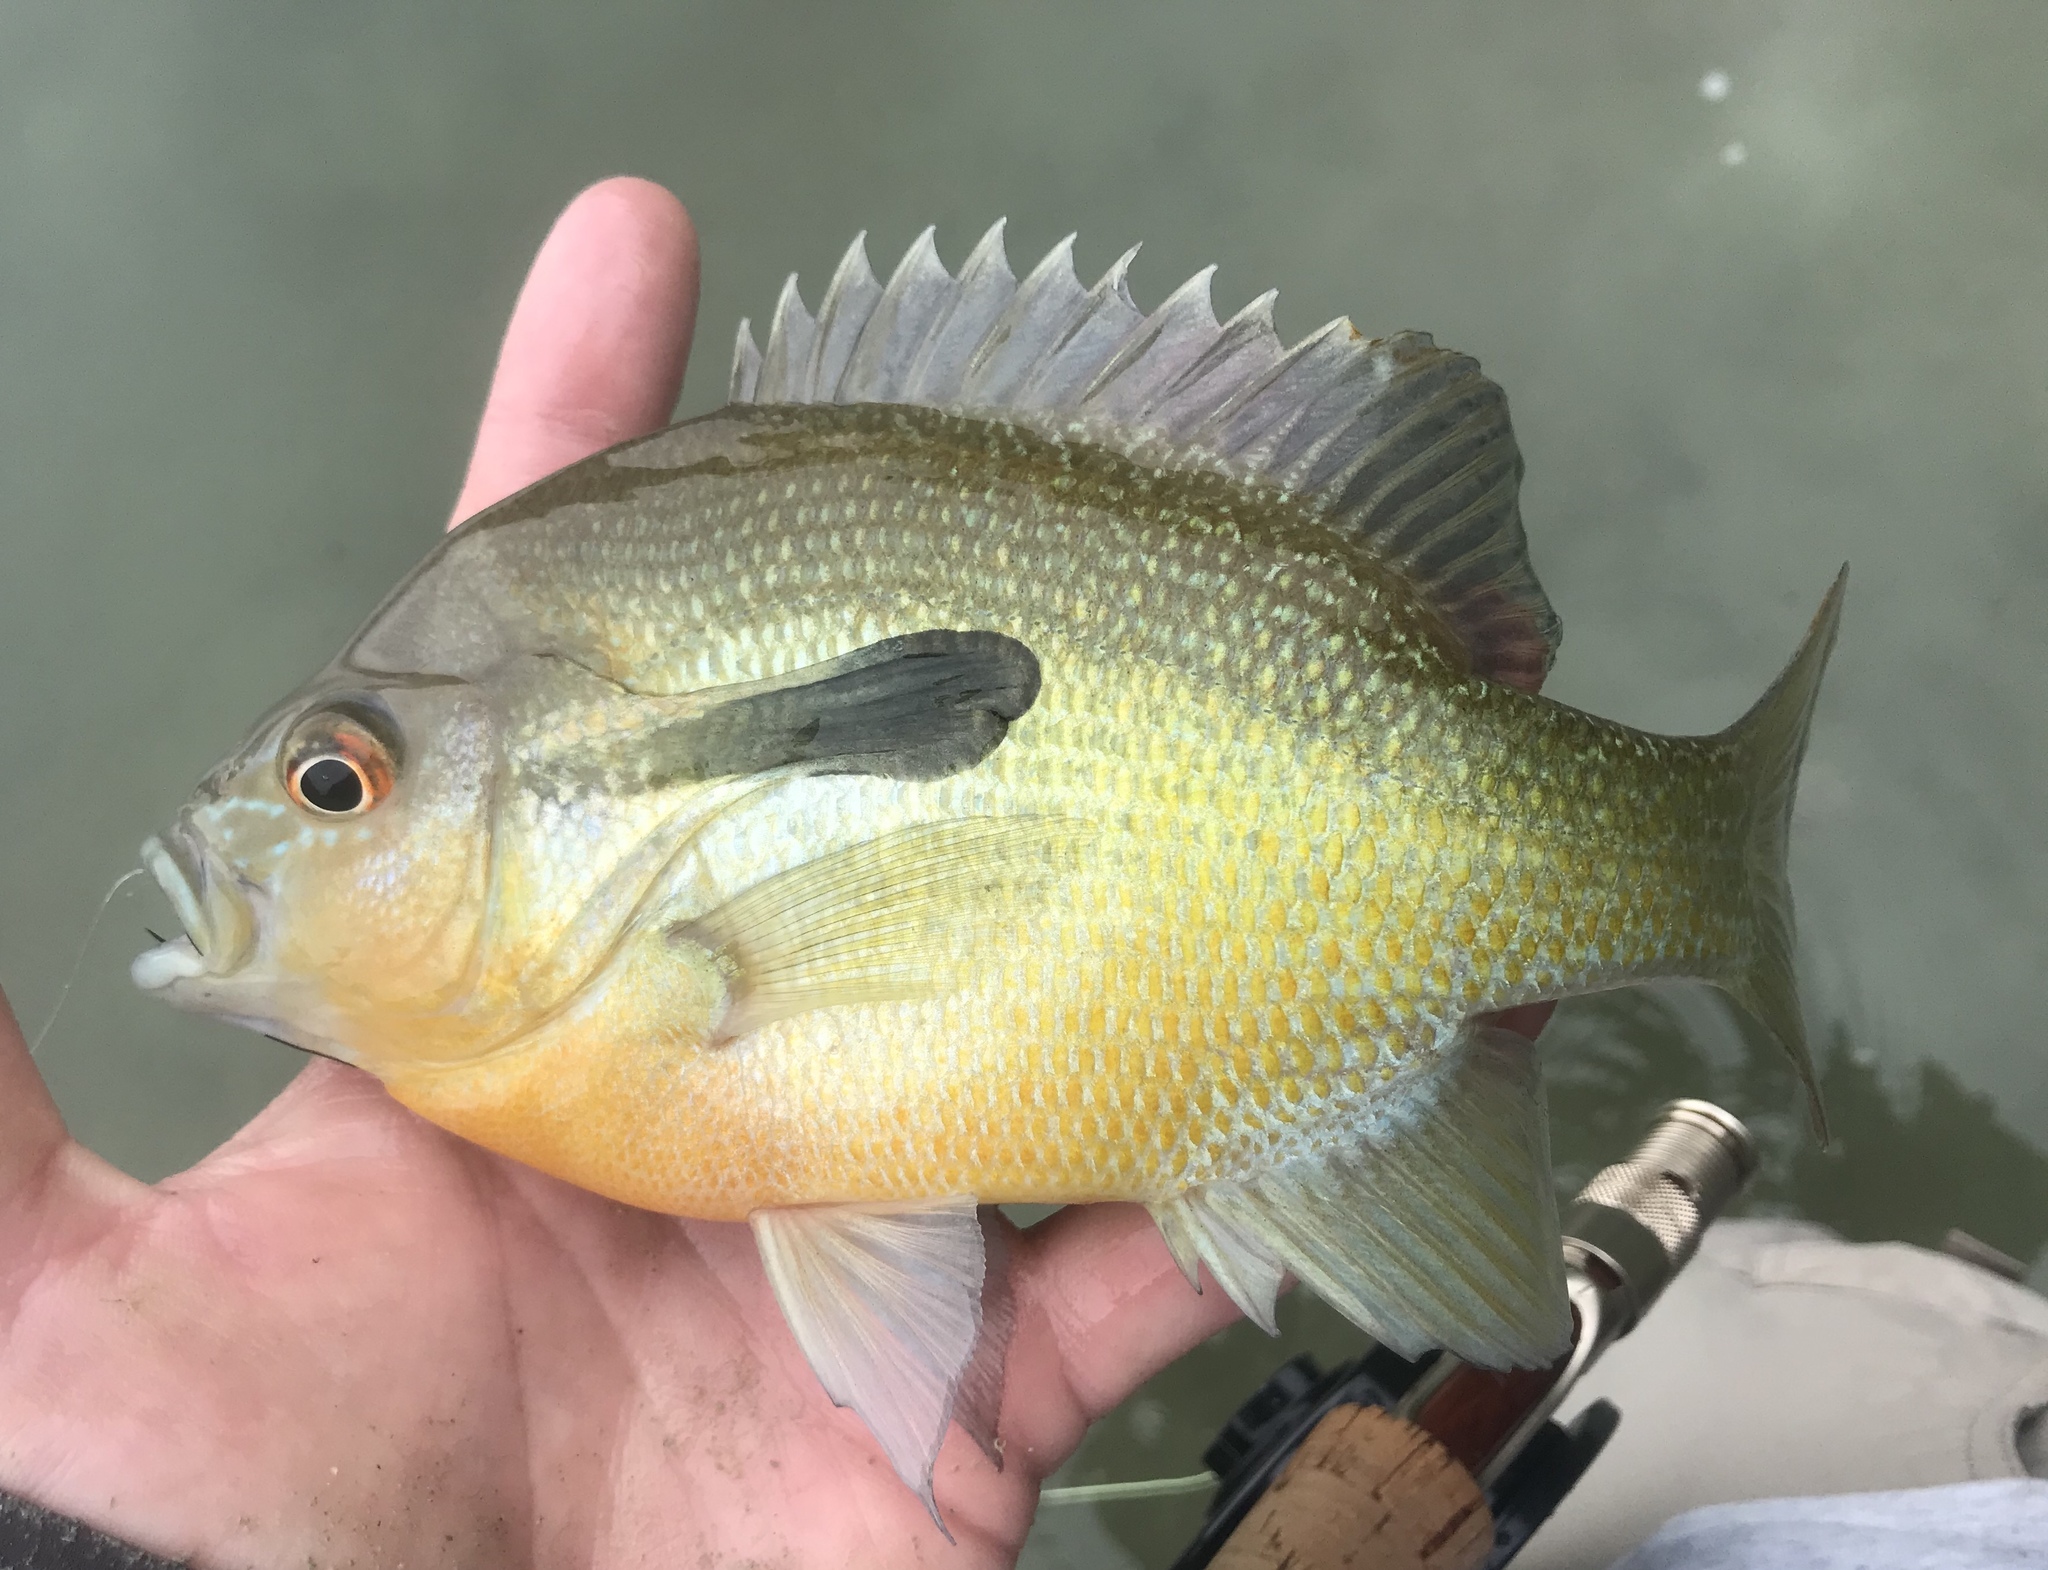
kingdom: Animalia
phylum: Chordata
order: Perciformes
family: Centrarchidae
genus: Lepomis
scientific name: Lepomis auritus
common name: Redbreast sunfish
